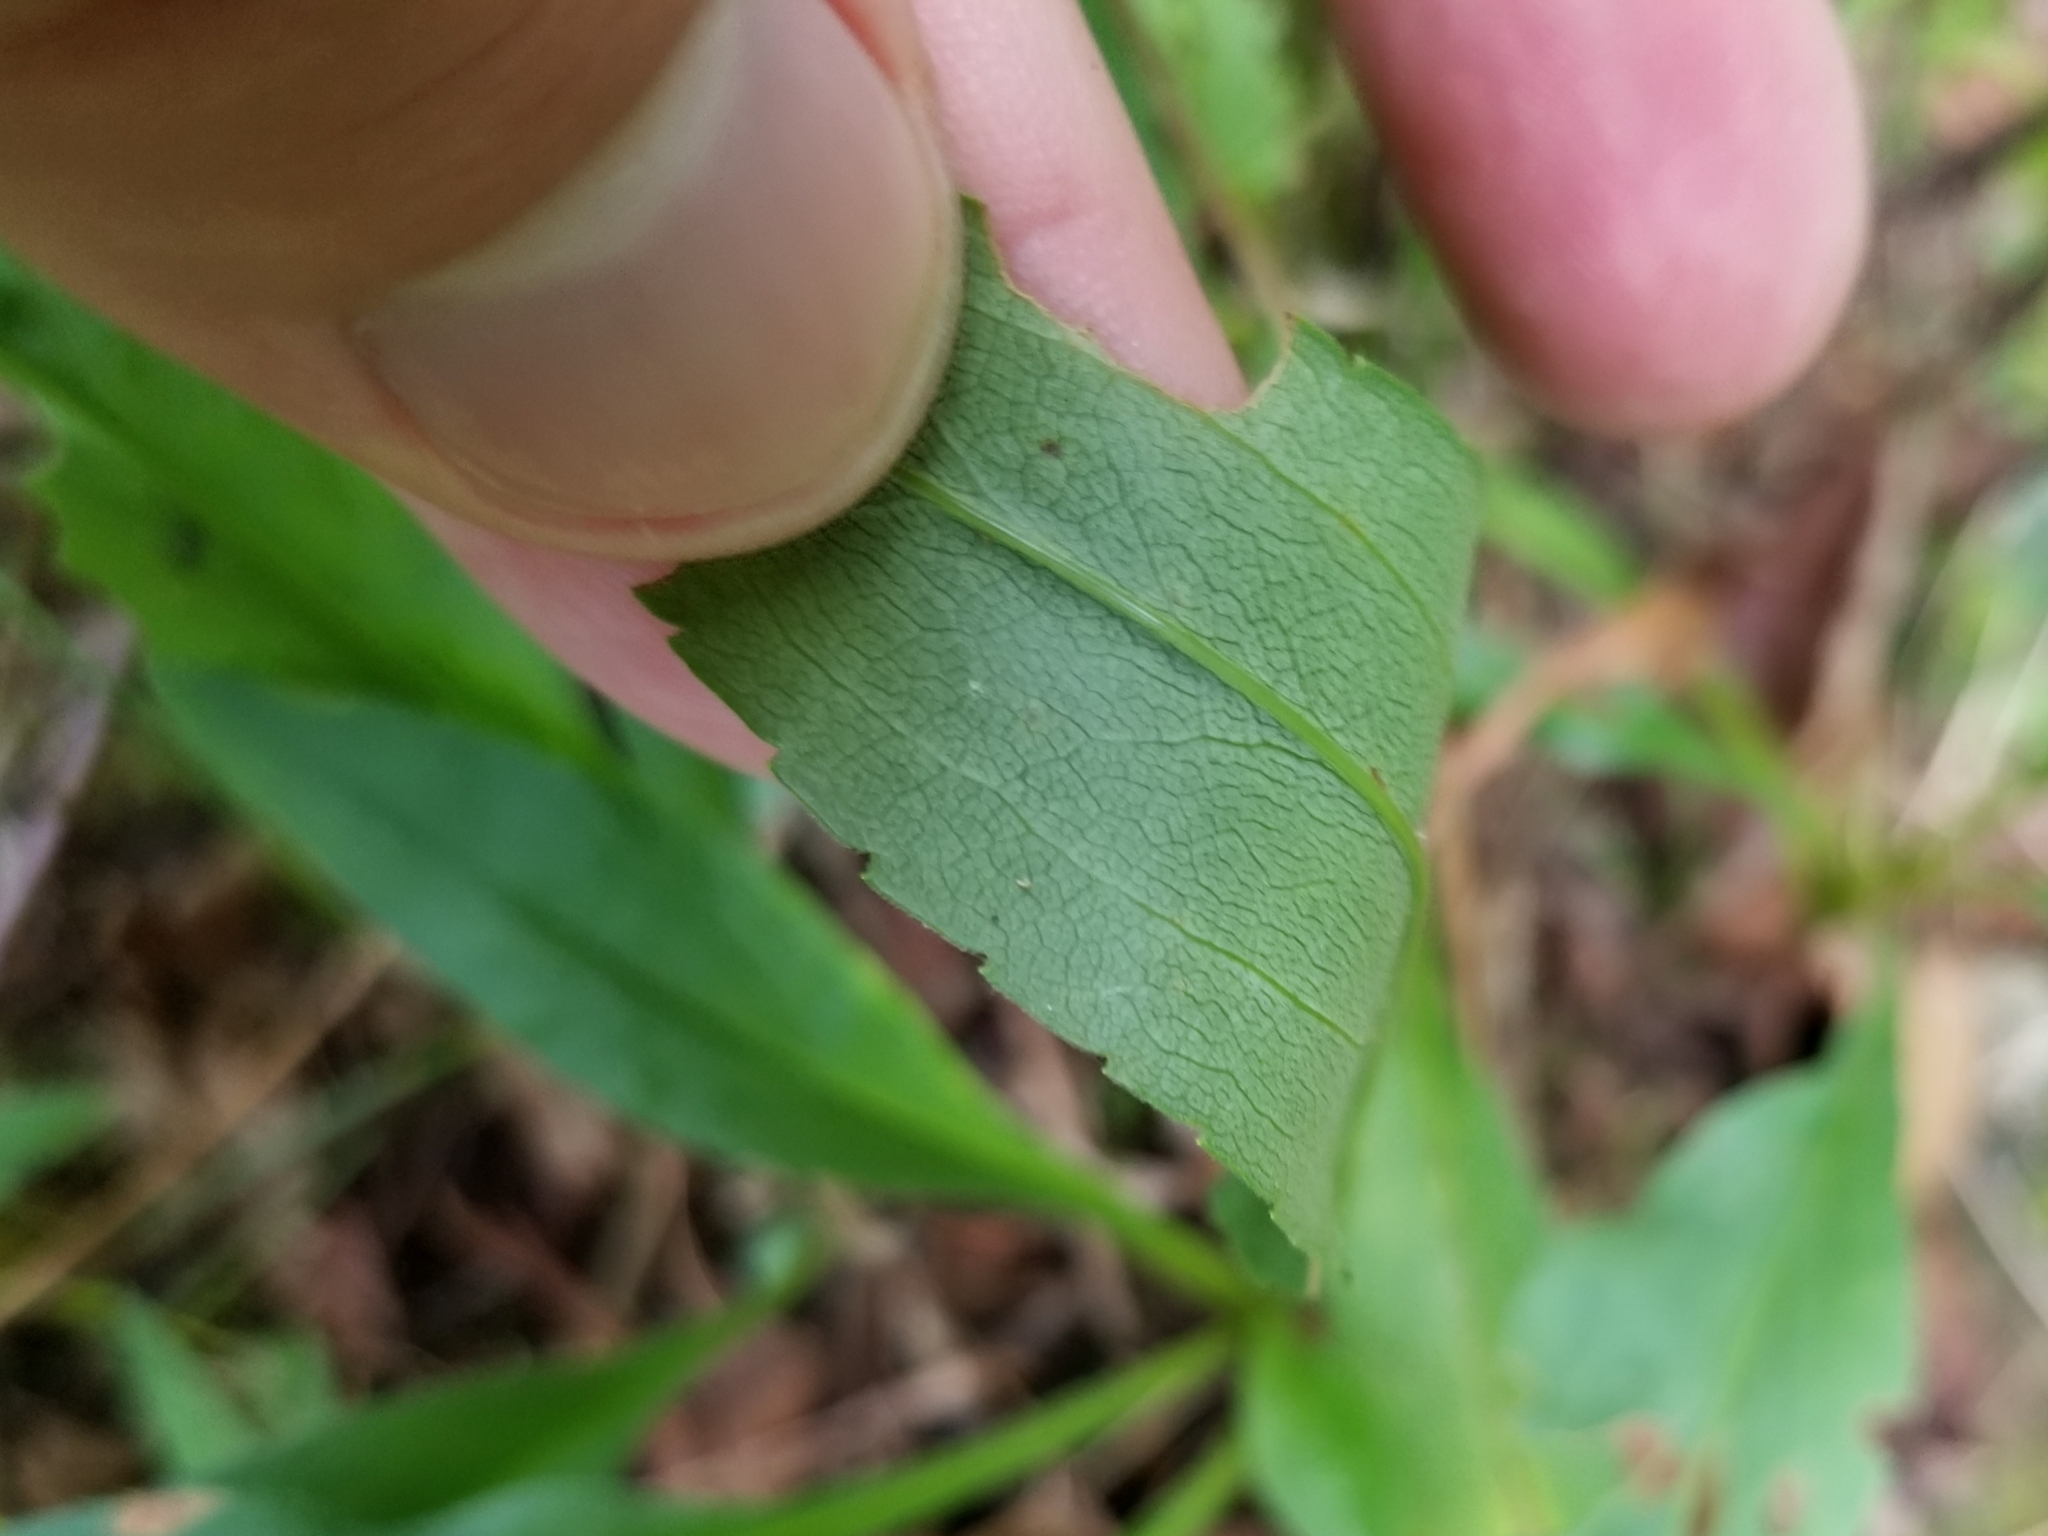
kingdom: Plantae
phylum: Tracheophyta
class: Magnoliopsida
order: Asterales
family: Asteraceae
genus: Solidago
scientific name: Solidago juncea
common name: Early goldenrod
